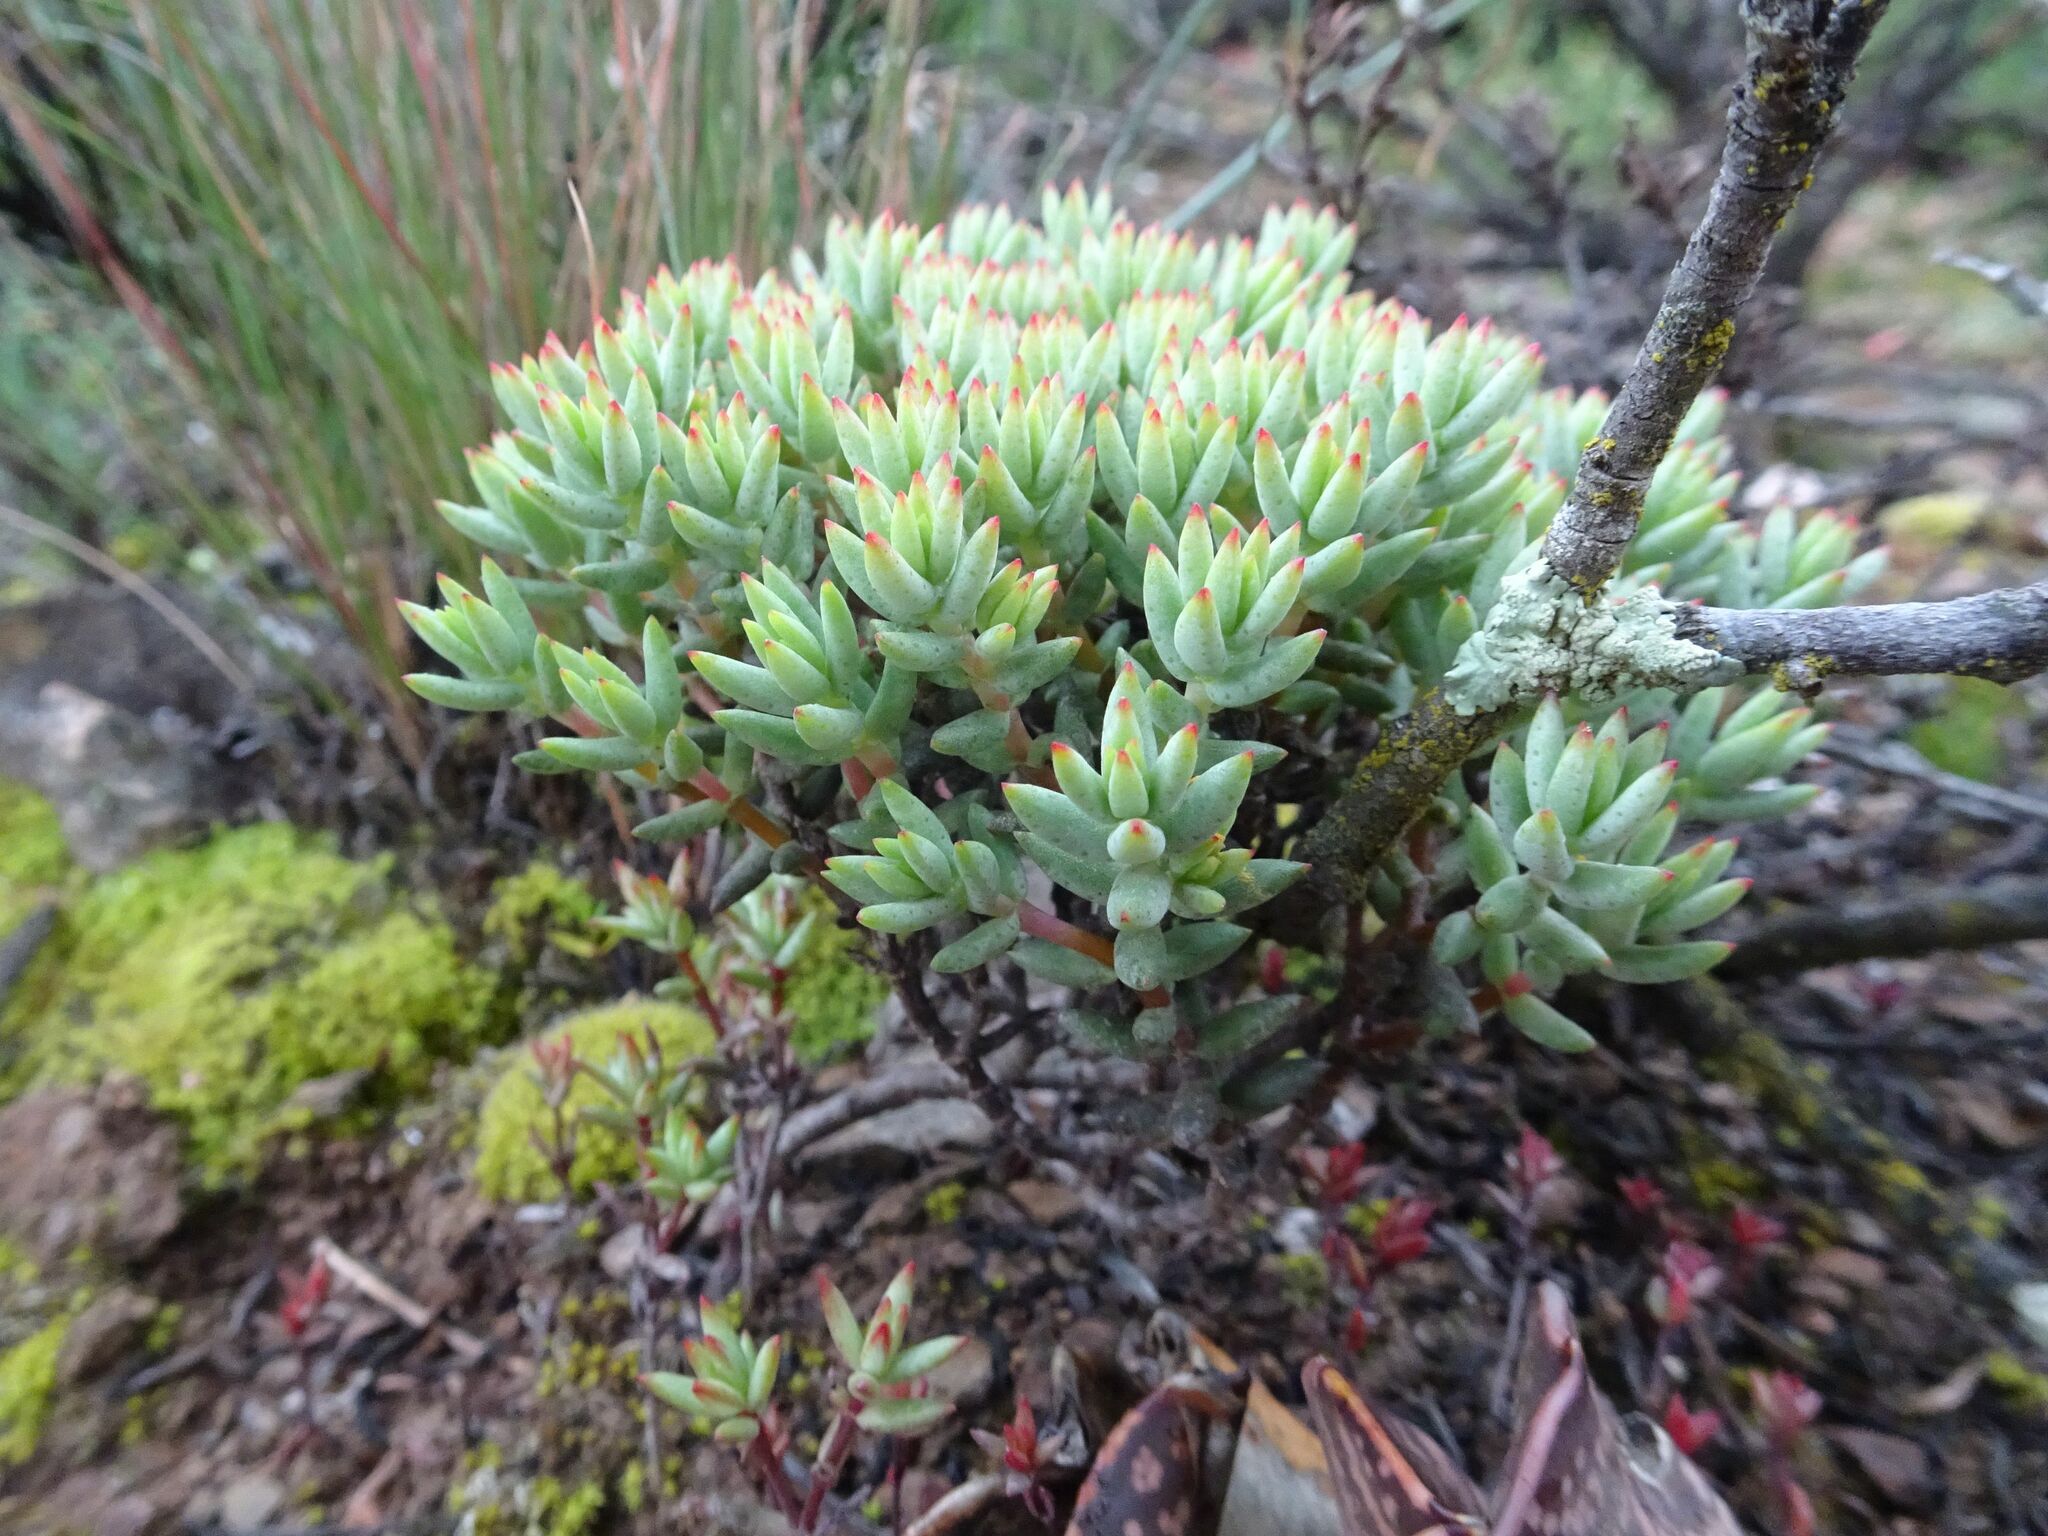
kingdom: Plantae
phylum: Tracheophyta
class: Magnoliopsida
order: Saxifragales
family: Crassulaceae
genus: Crassula
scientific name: Crassula biplanata
